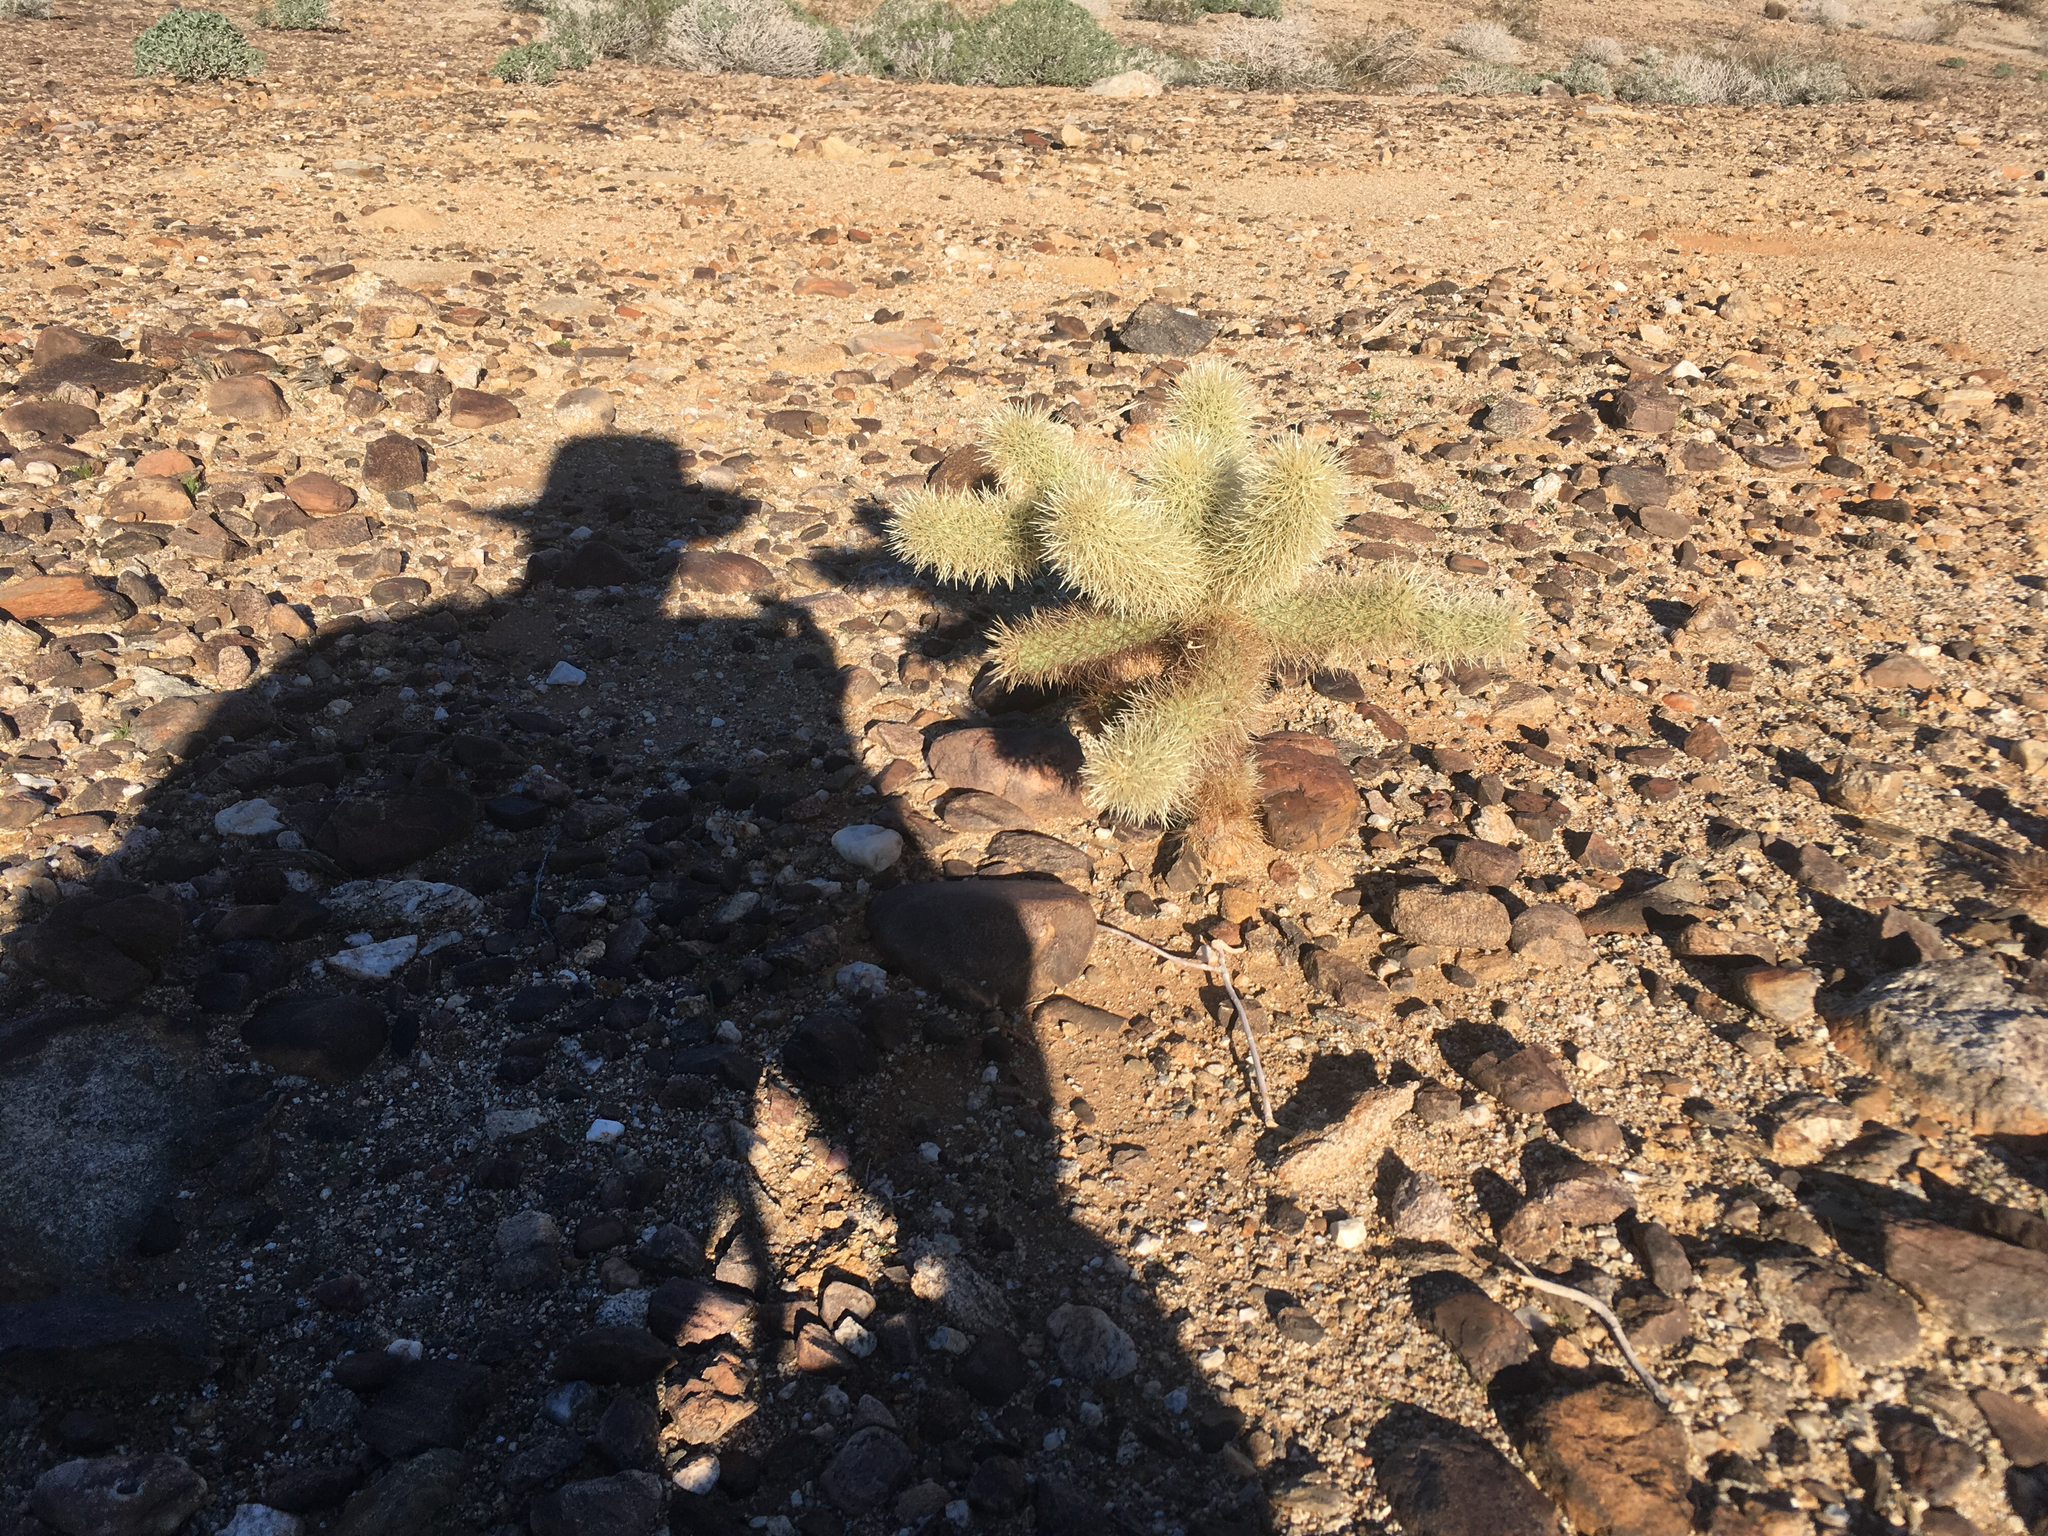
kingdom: Plantae
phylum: Tracheophyta
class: Magnoliopsida
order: Caryophyllales
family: Cactaceae
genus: Cylindropuntia
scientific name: Cylindropuntia fosbergii
